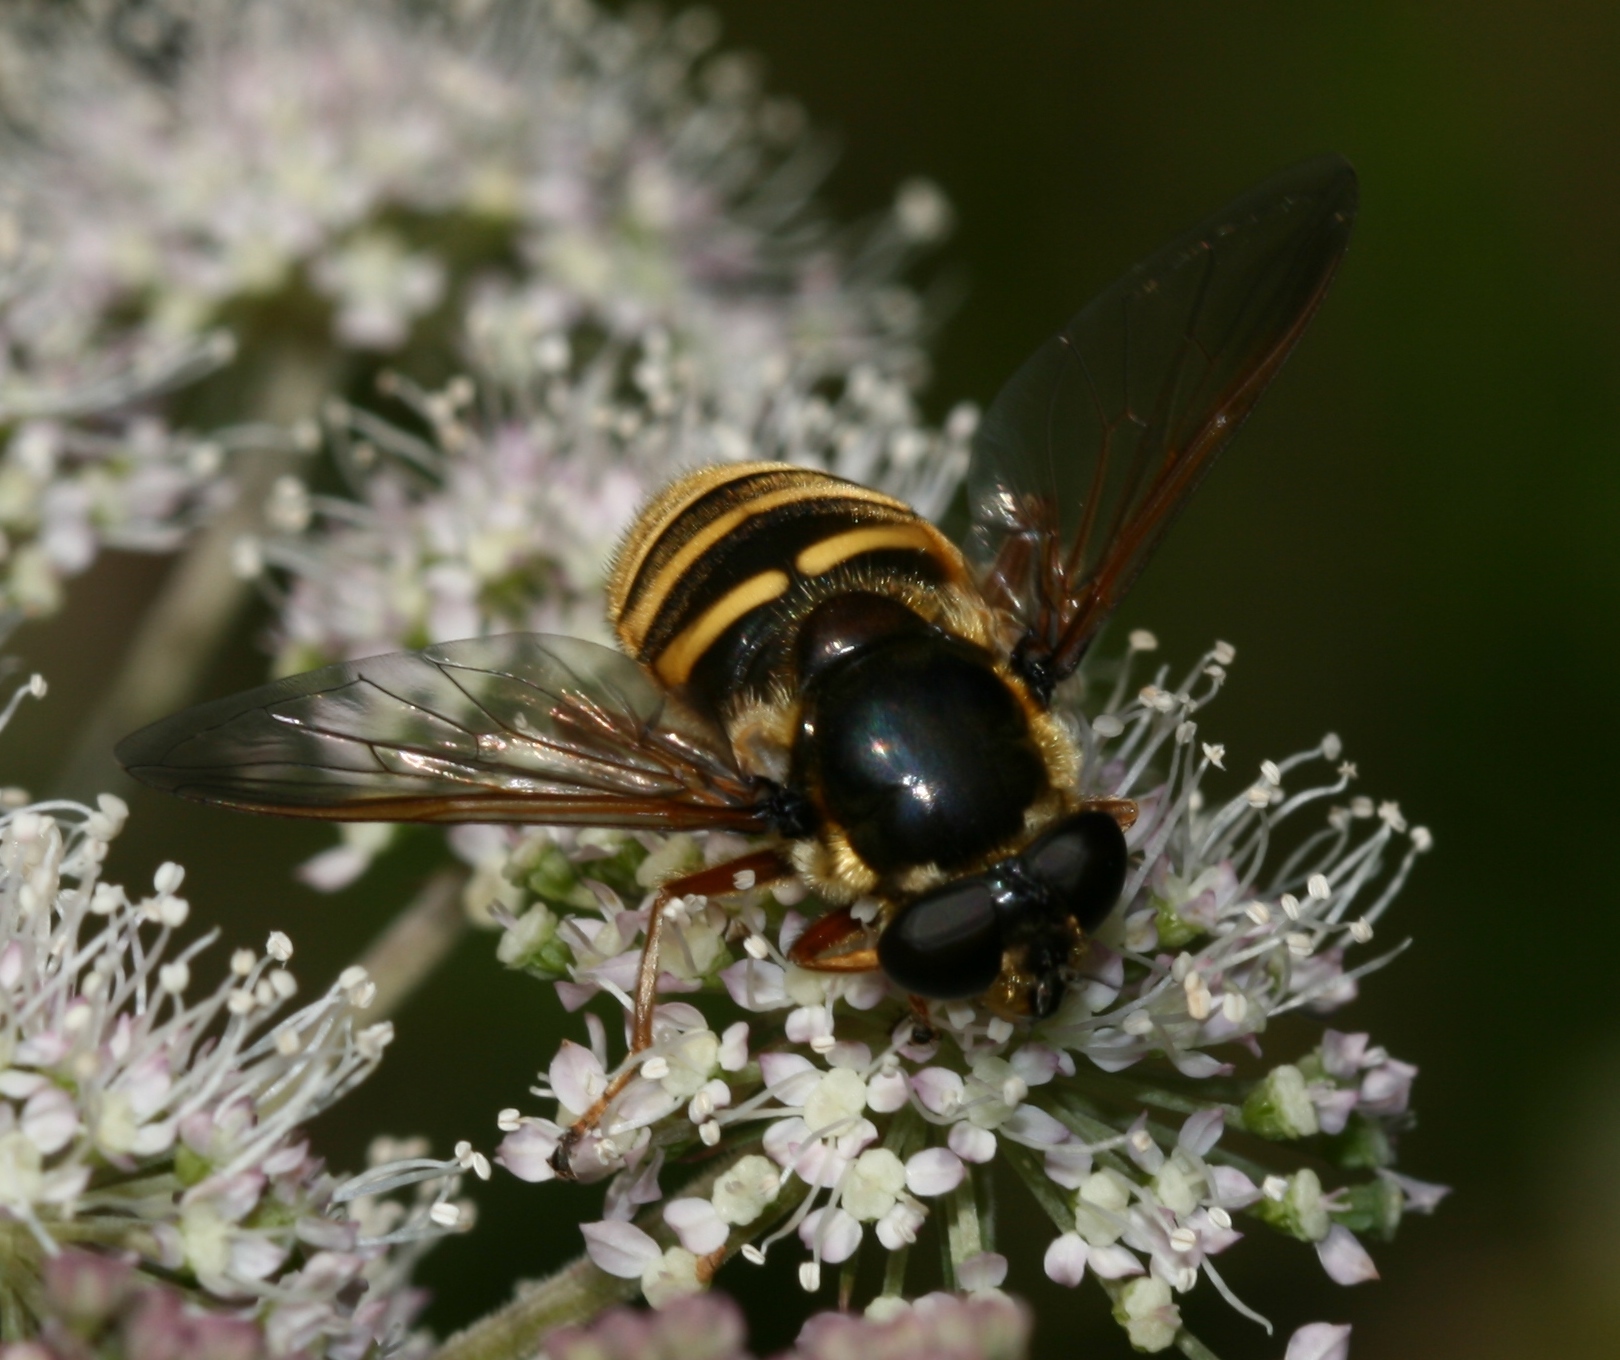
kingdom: Animalia
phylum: Arthropoda
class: Insecta
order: Diptera
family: Syrphidae
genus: Sericomyia
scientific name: Sericomyia silentis
